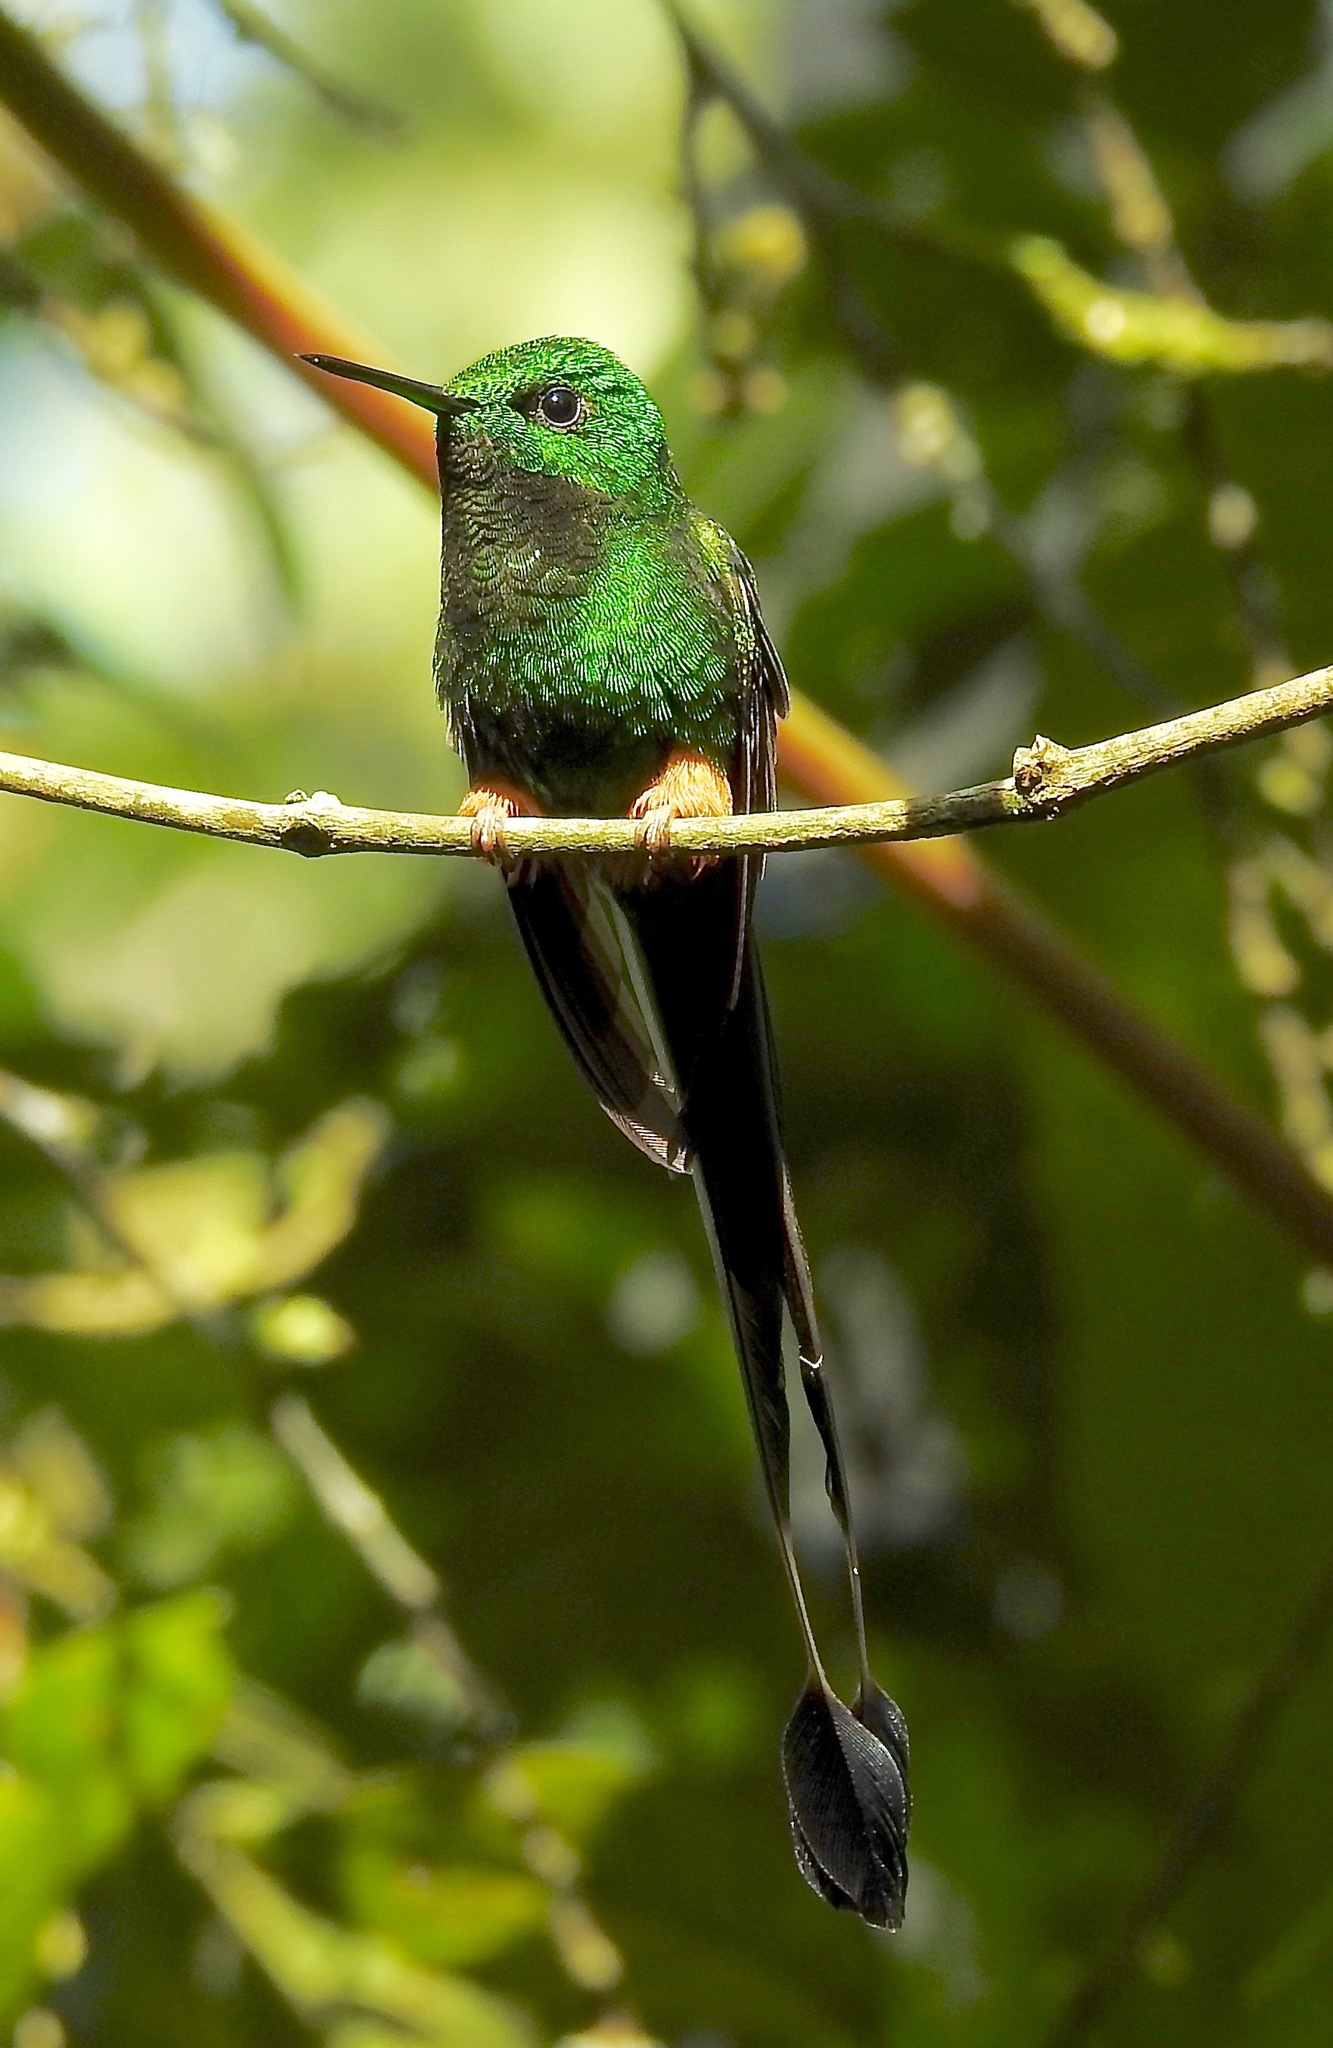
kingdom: Animalia
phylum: Chordata
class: Aves
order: Apodiformes
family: Trochilidae
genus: Ocreatus
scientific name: Ocreatus peruanus
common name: Peruvian racket-tail
